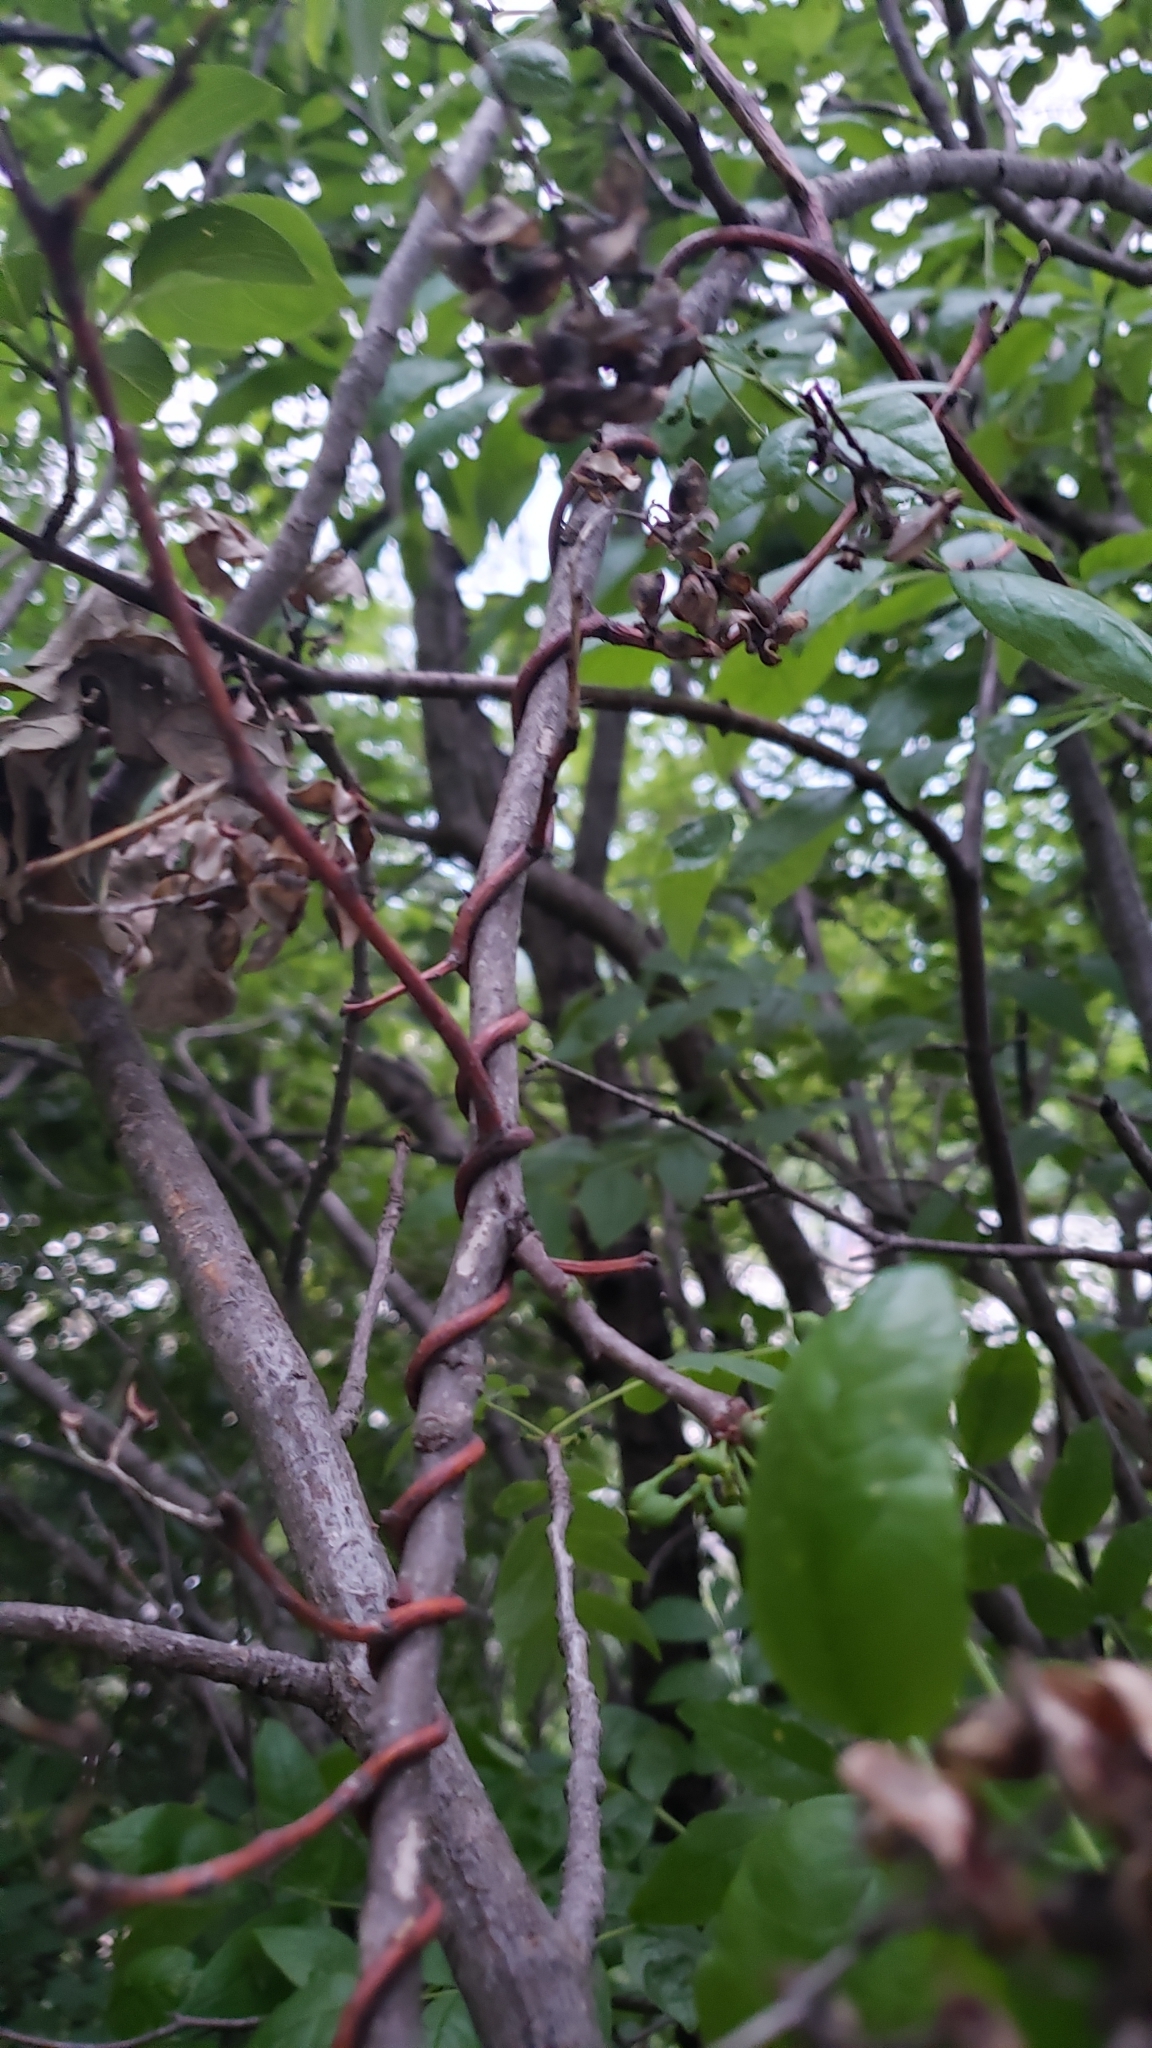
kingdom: Plantae
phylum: Tracheophyta
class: Magnoliopsida
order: Celastrales
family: Celastraceae
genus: Celastrus
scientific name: Celastrus scandens
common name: American bittersweet
